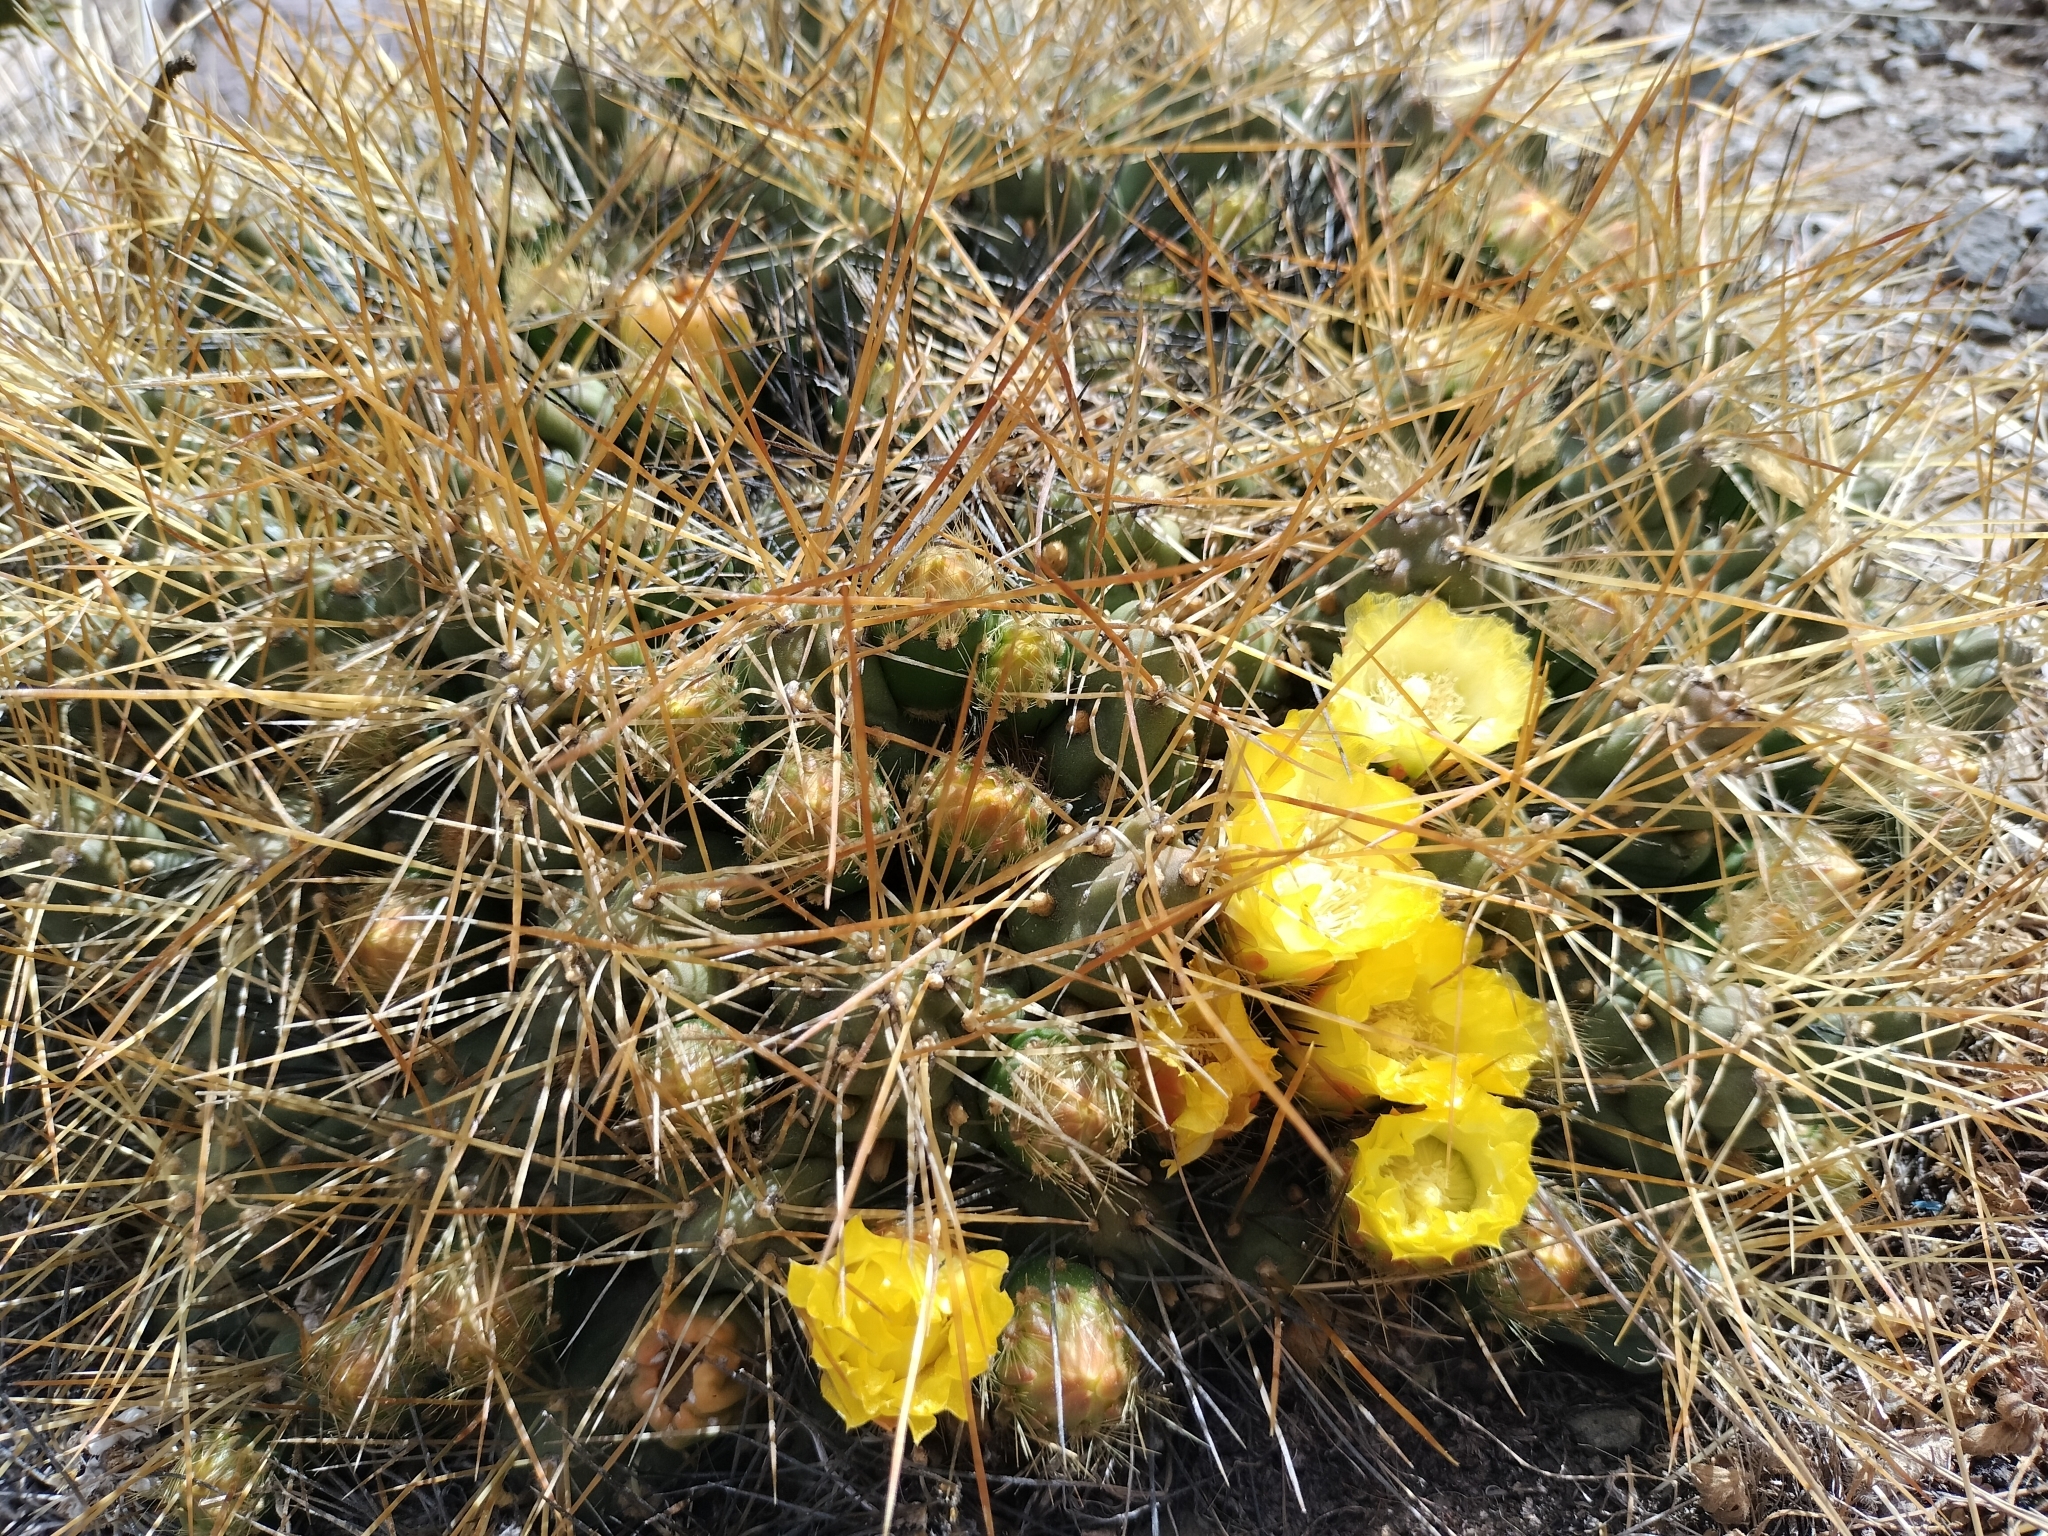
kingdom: Plantae
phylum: Tracheophyta
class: Magnoliopsida
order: Caryophyllales
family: Cactaceae
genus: Cumulopuntia
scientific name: Cumulopuntia boliviana
